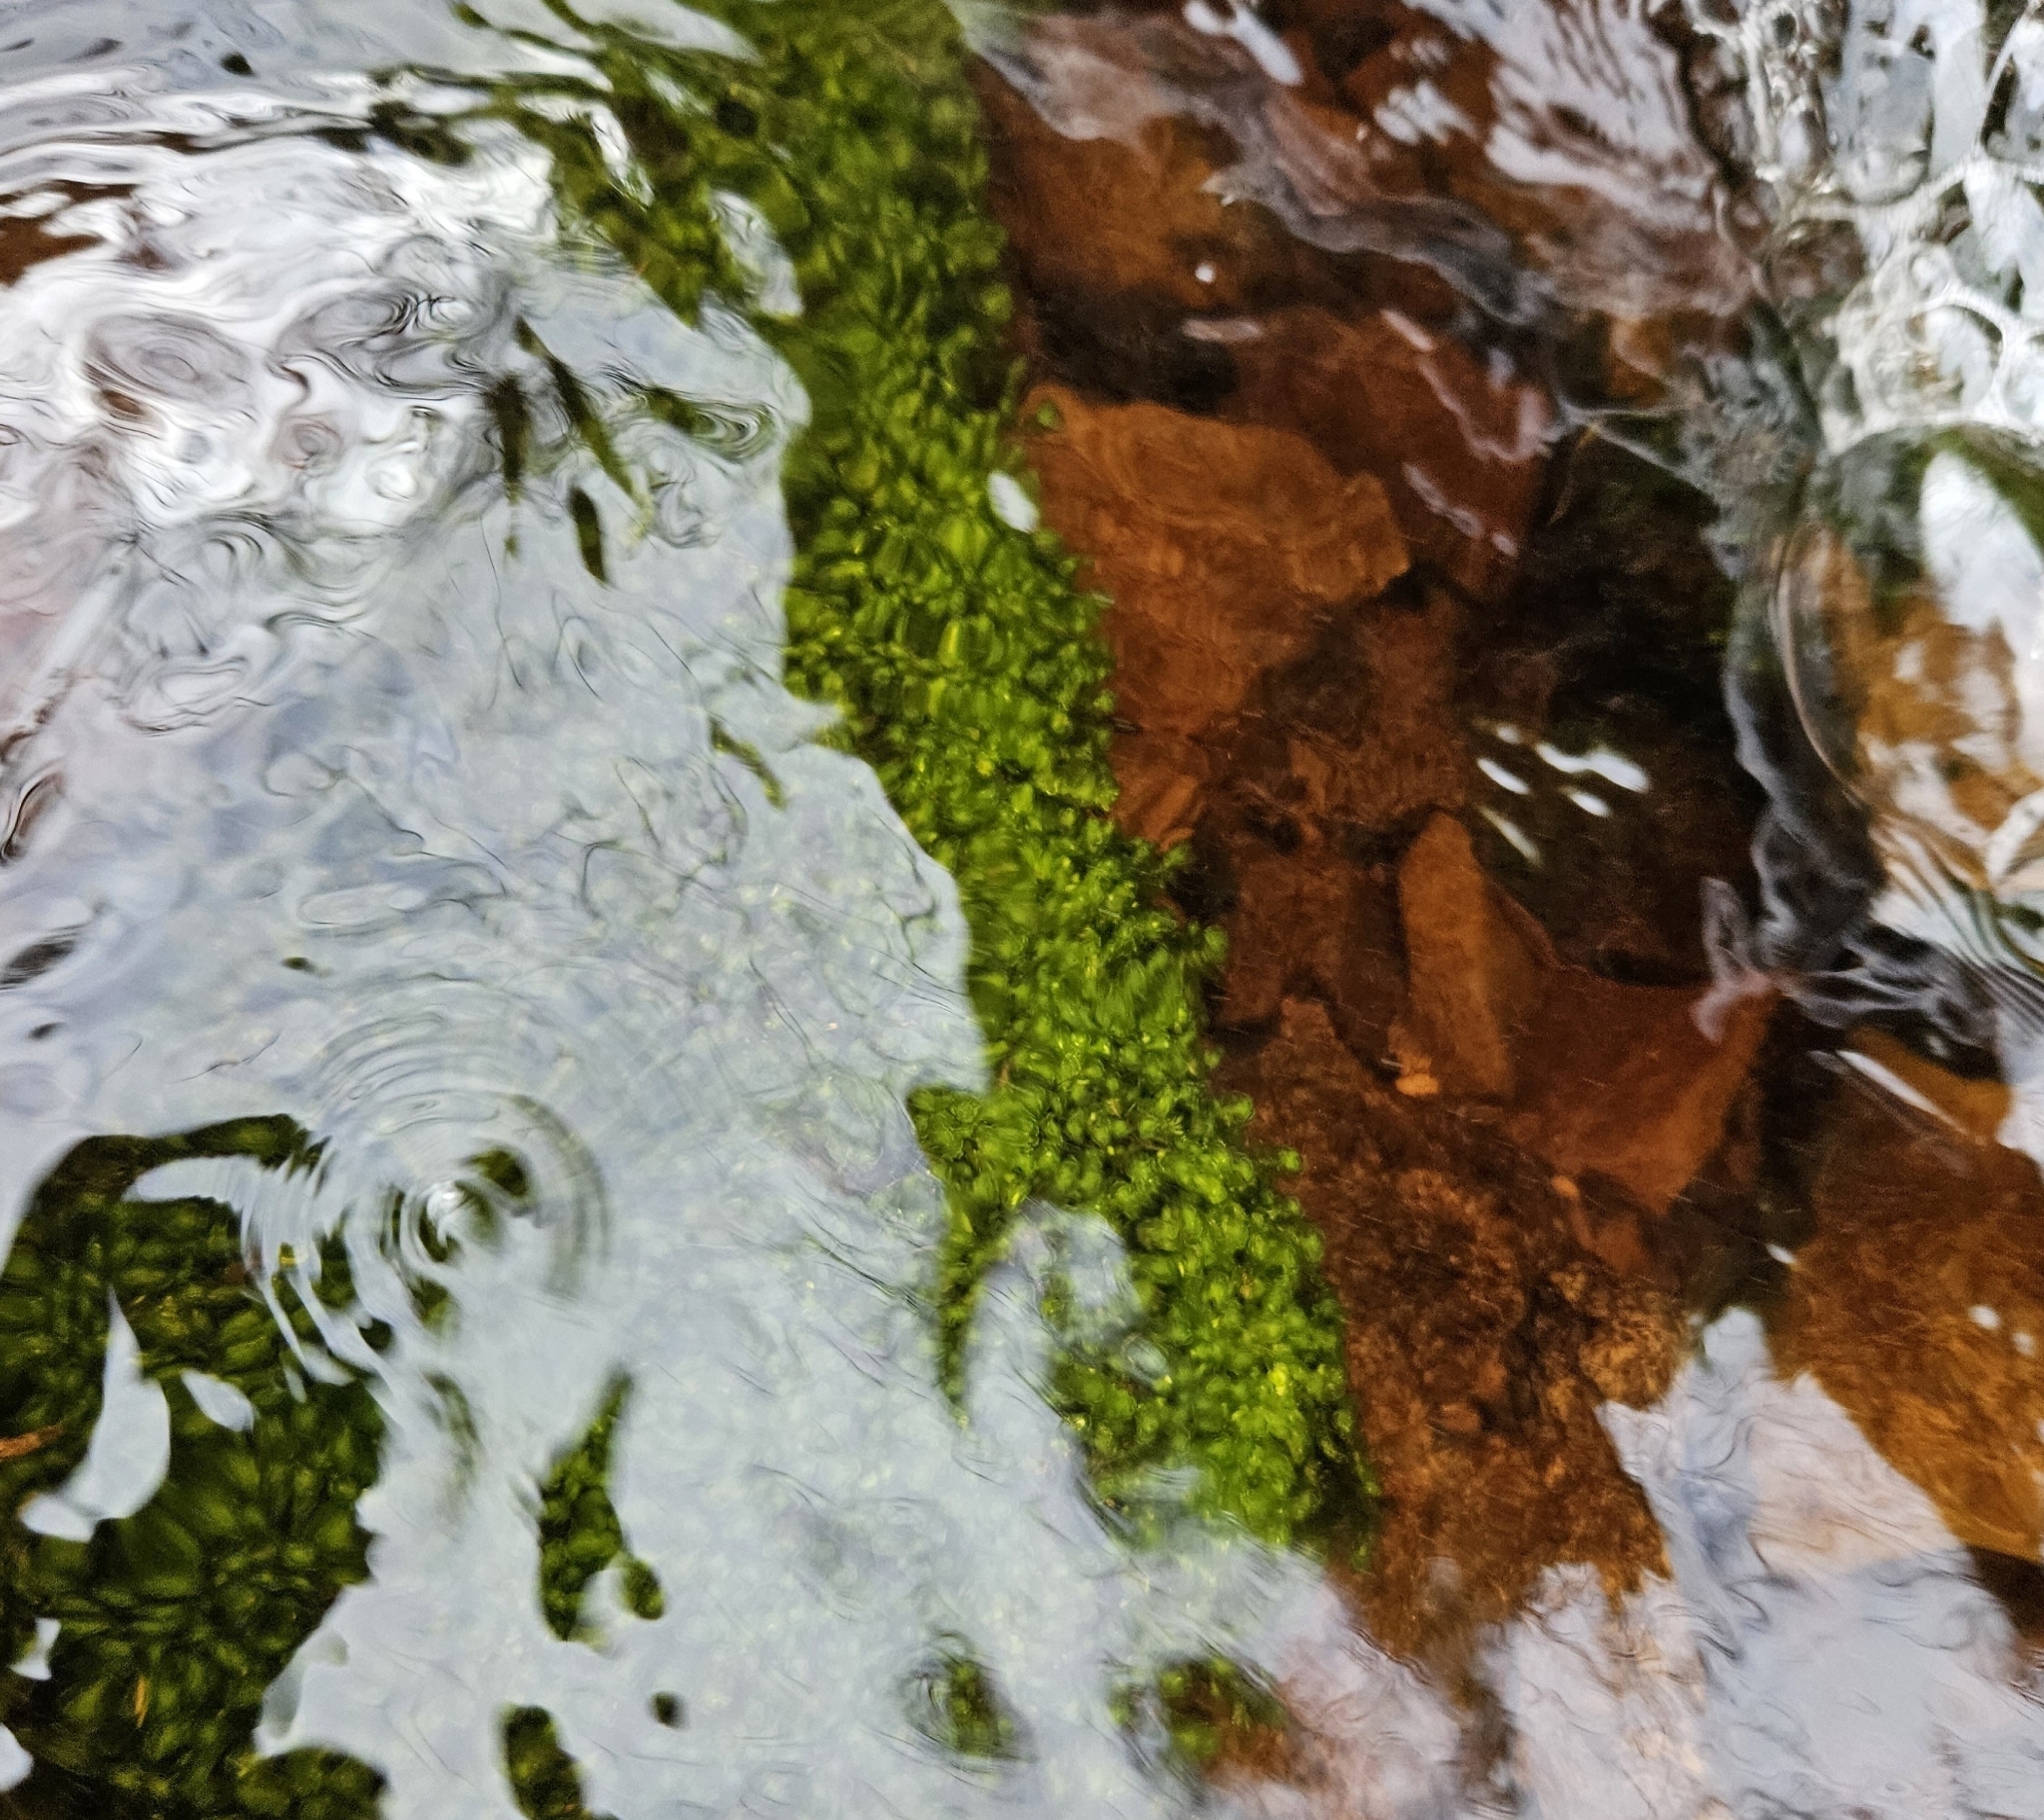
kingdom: Plantae
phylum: Marchantiophyta
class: Jungermanniopsida
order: Jungermanniales
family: Scapaniaceae
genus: Scapania
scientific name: Scapania undulata
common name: Water earwort
